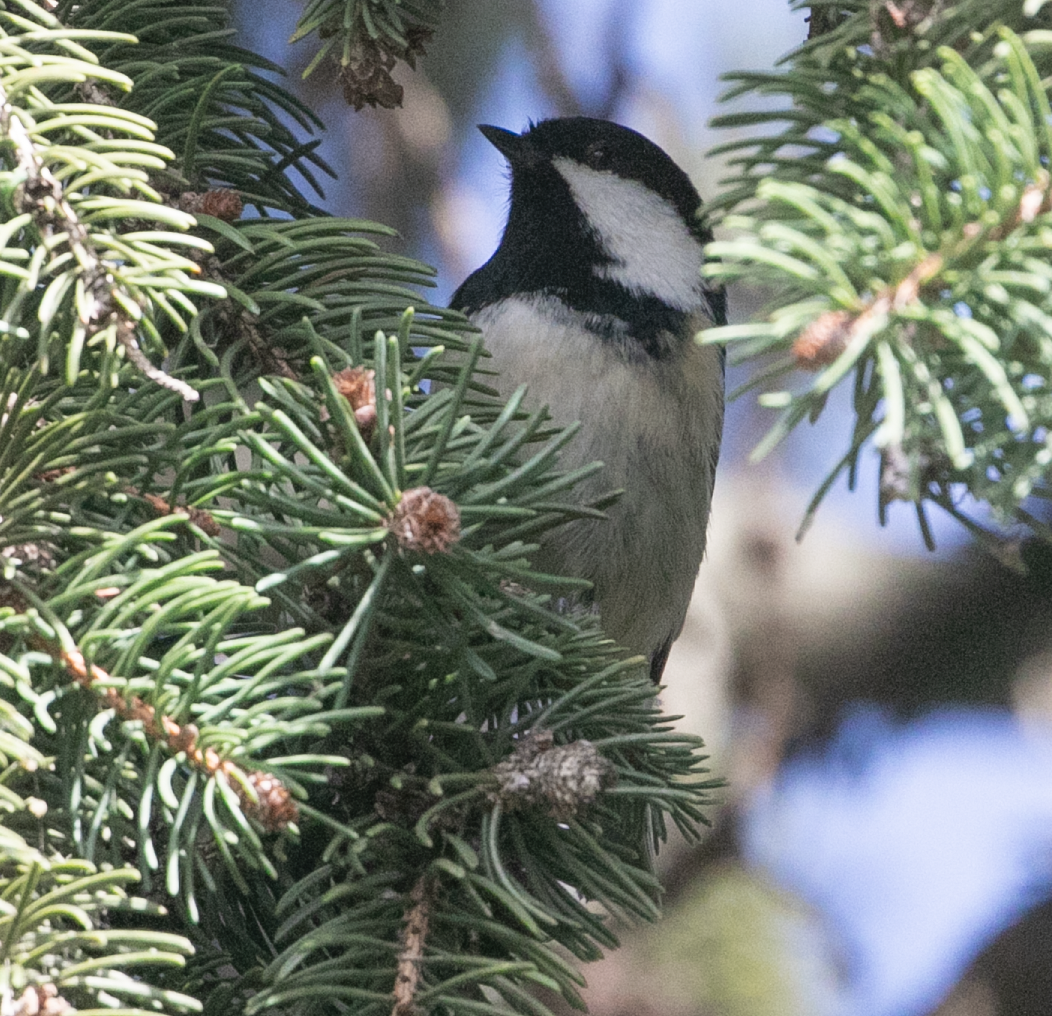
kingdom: Animalia
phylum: Chordata
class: Aves
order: Passeriformes
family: Paridae
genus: Periparus
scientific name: Periparus ater
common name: Coal tit
